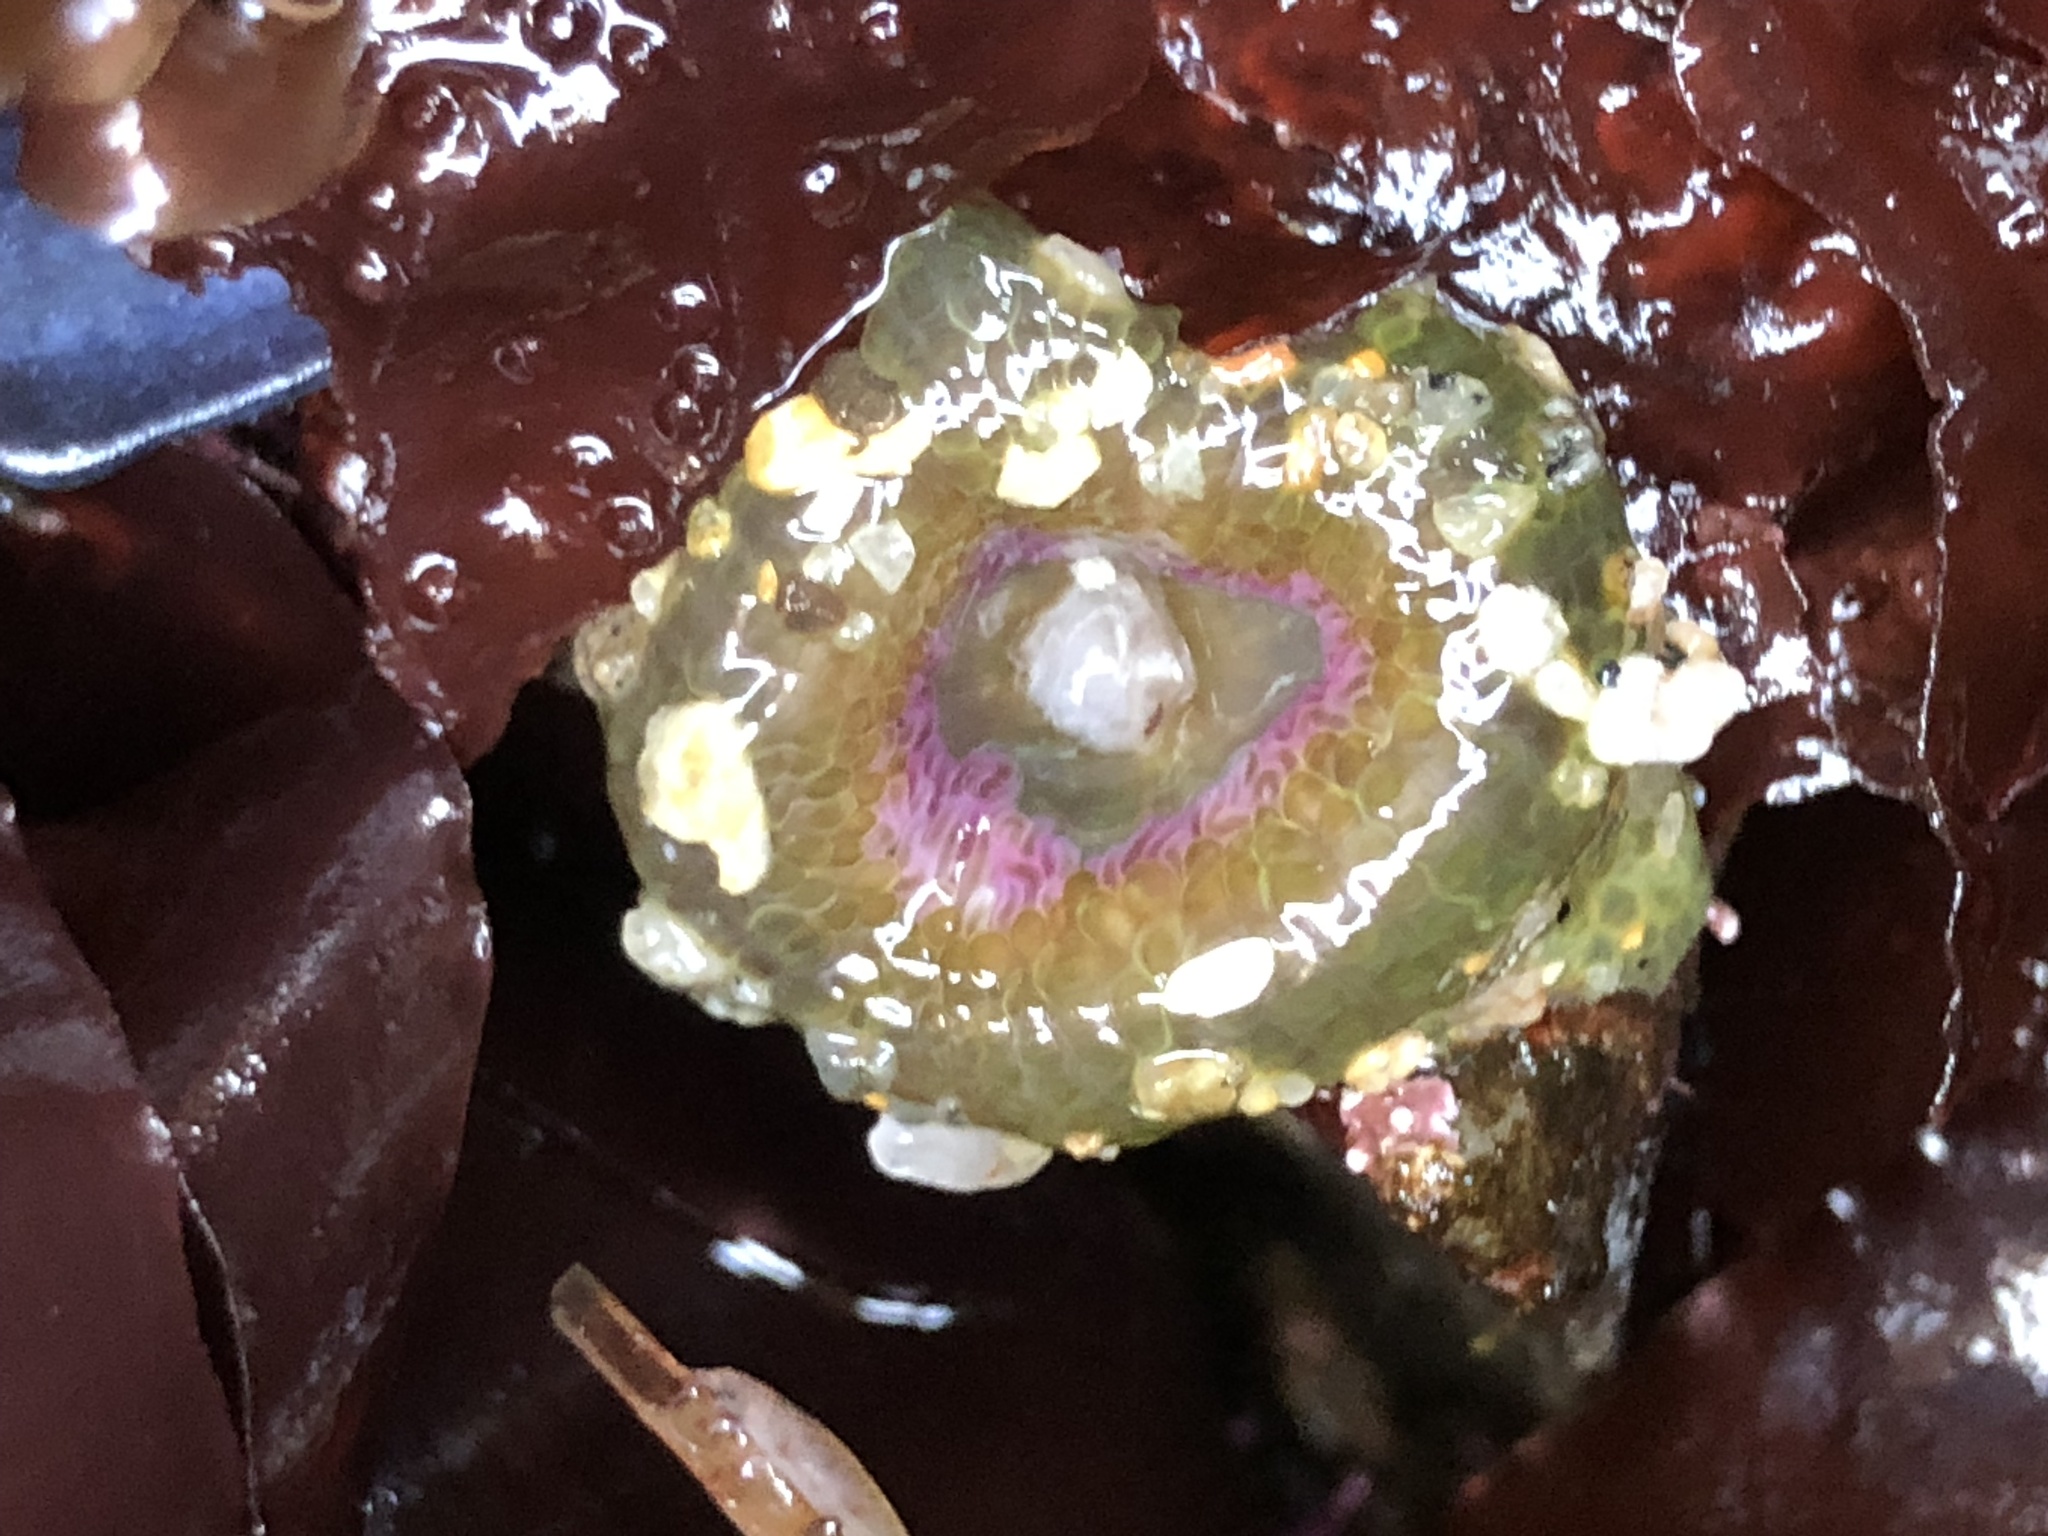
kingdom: Animalia
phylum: Cnidaria
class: Anthozoa
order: Actiniaria
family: Actiniidae
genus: Anthopleura
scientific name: Anthopleura elegantissima
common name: Clonal anemone
